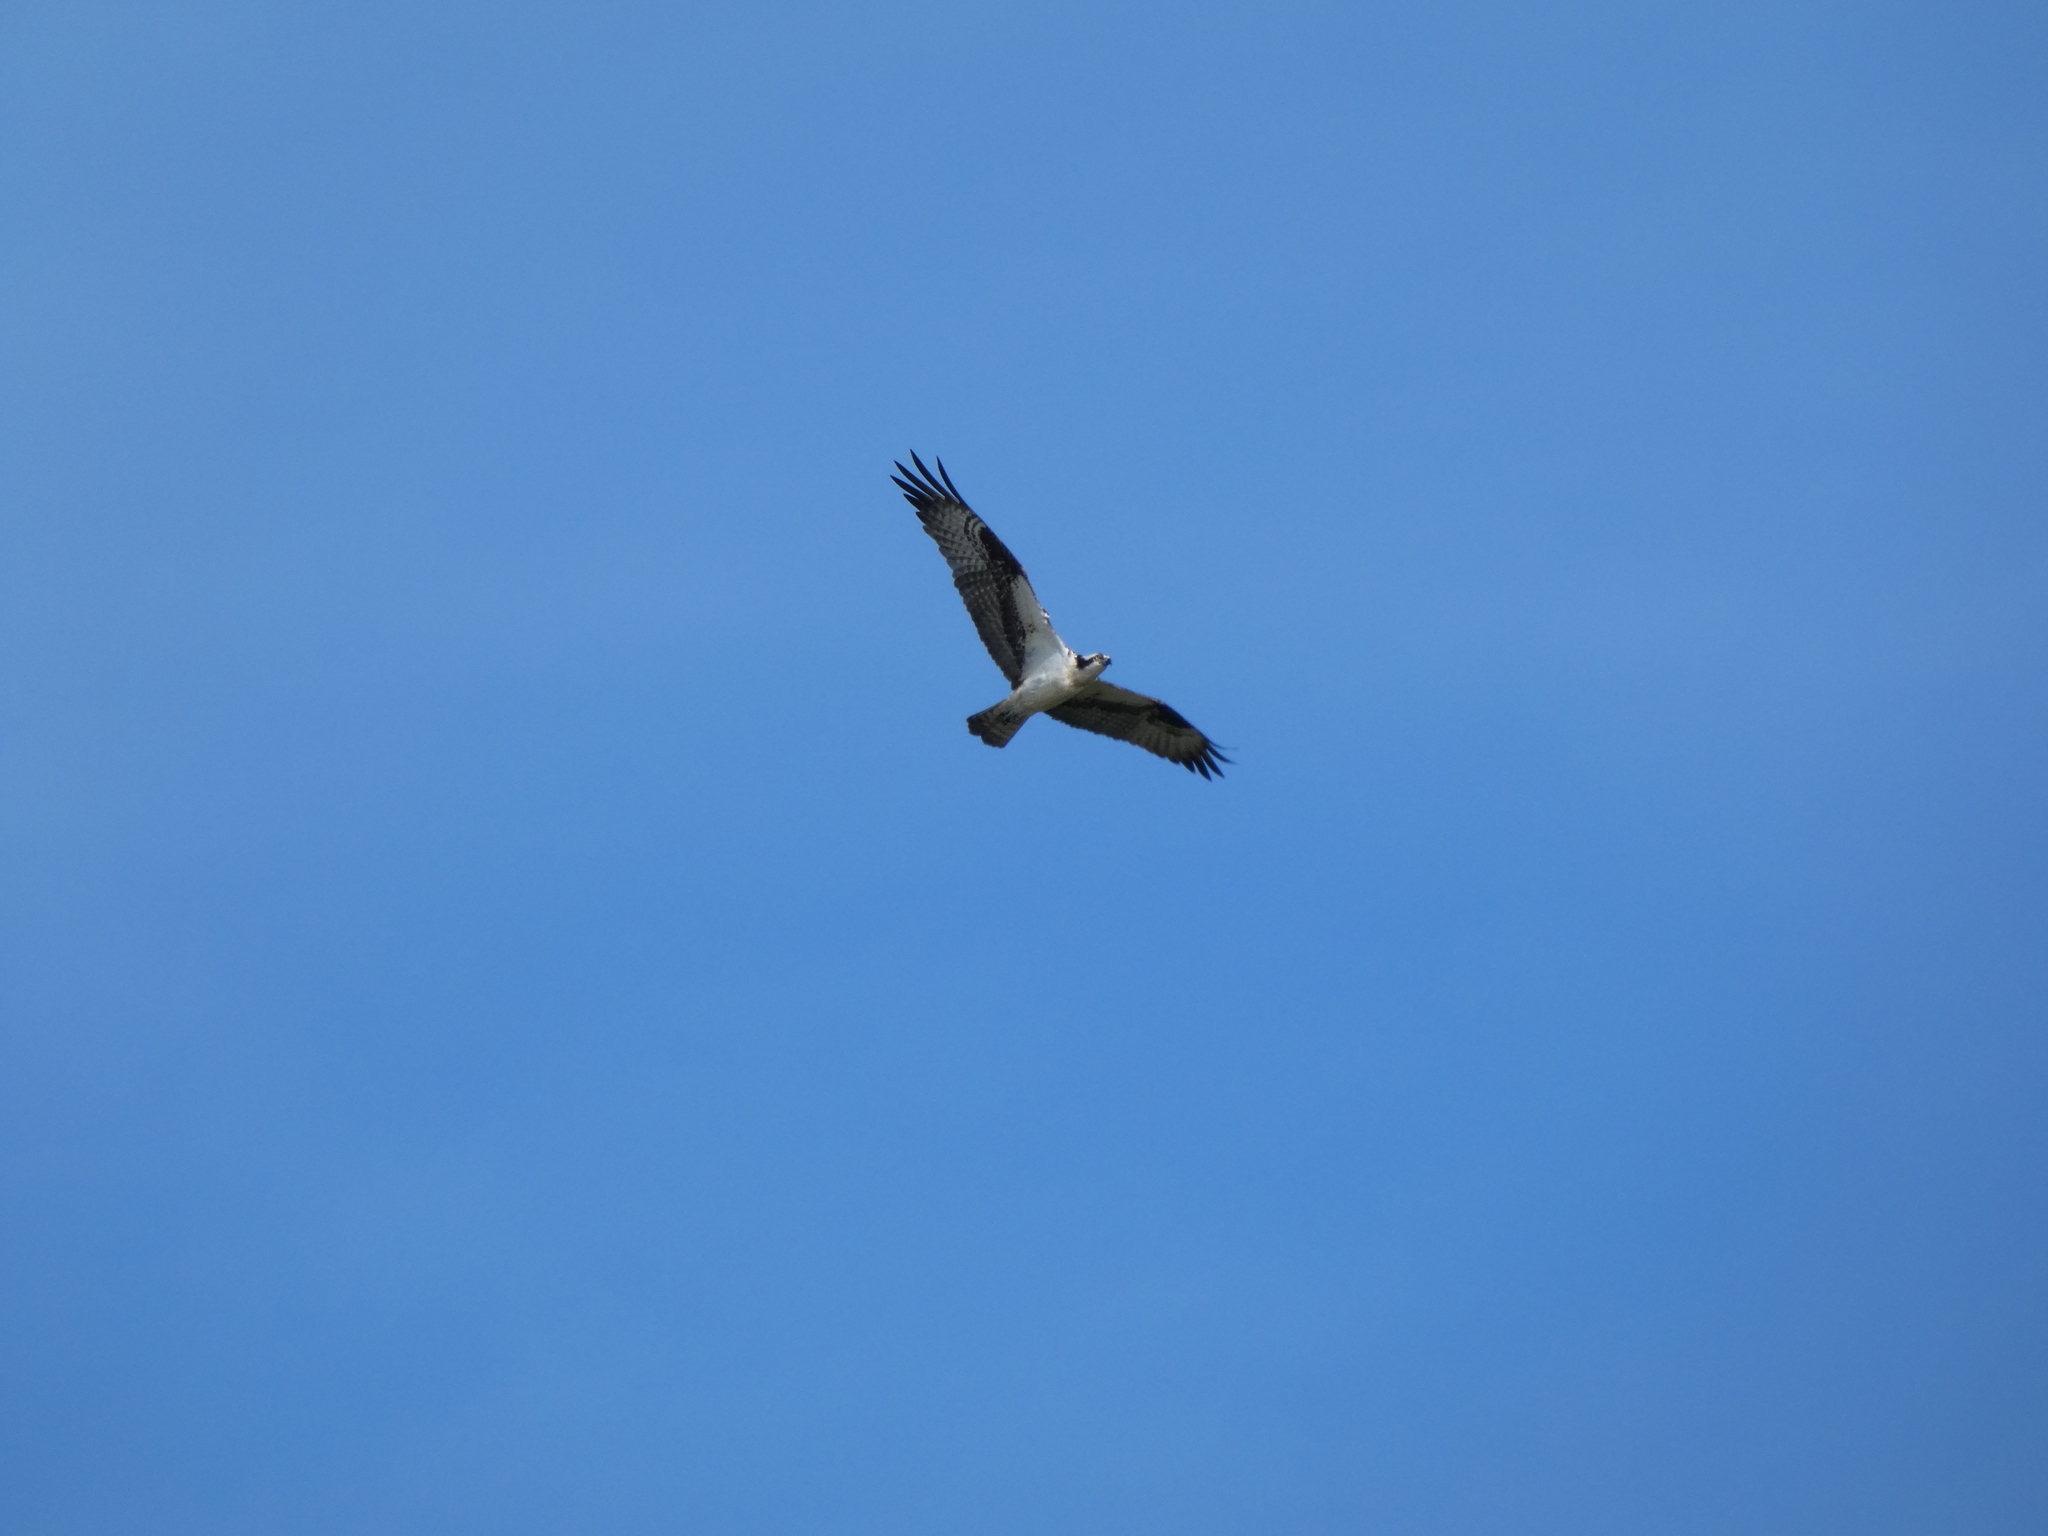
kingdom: Animalia
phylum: Chordata
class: Aves
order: Accipitriformes
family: Pandionidae
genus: Pandion
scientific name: Pandion haliaetus
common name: Osprey
